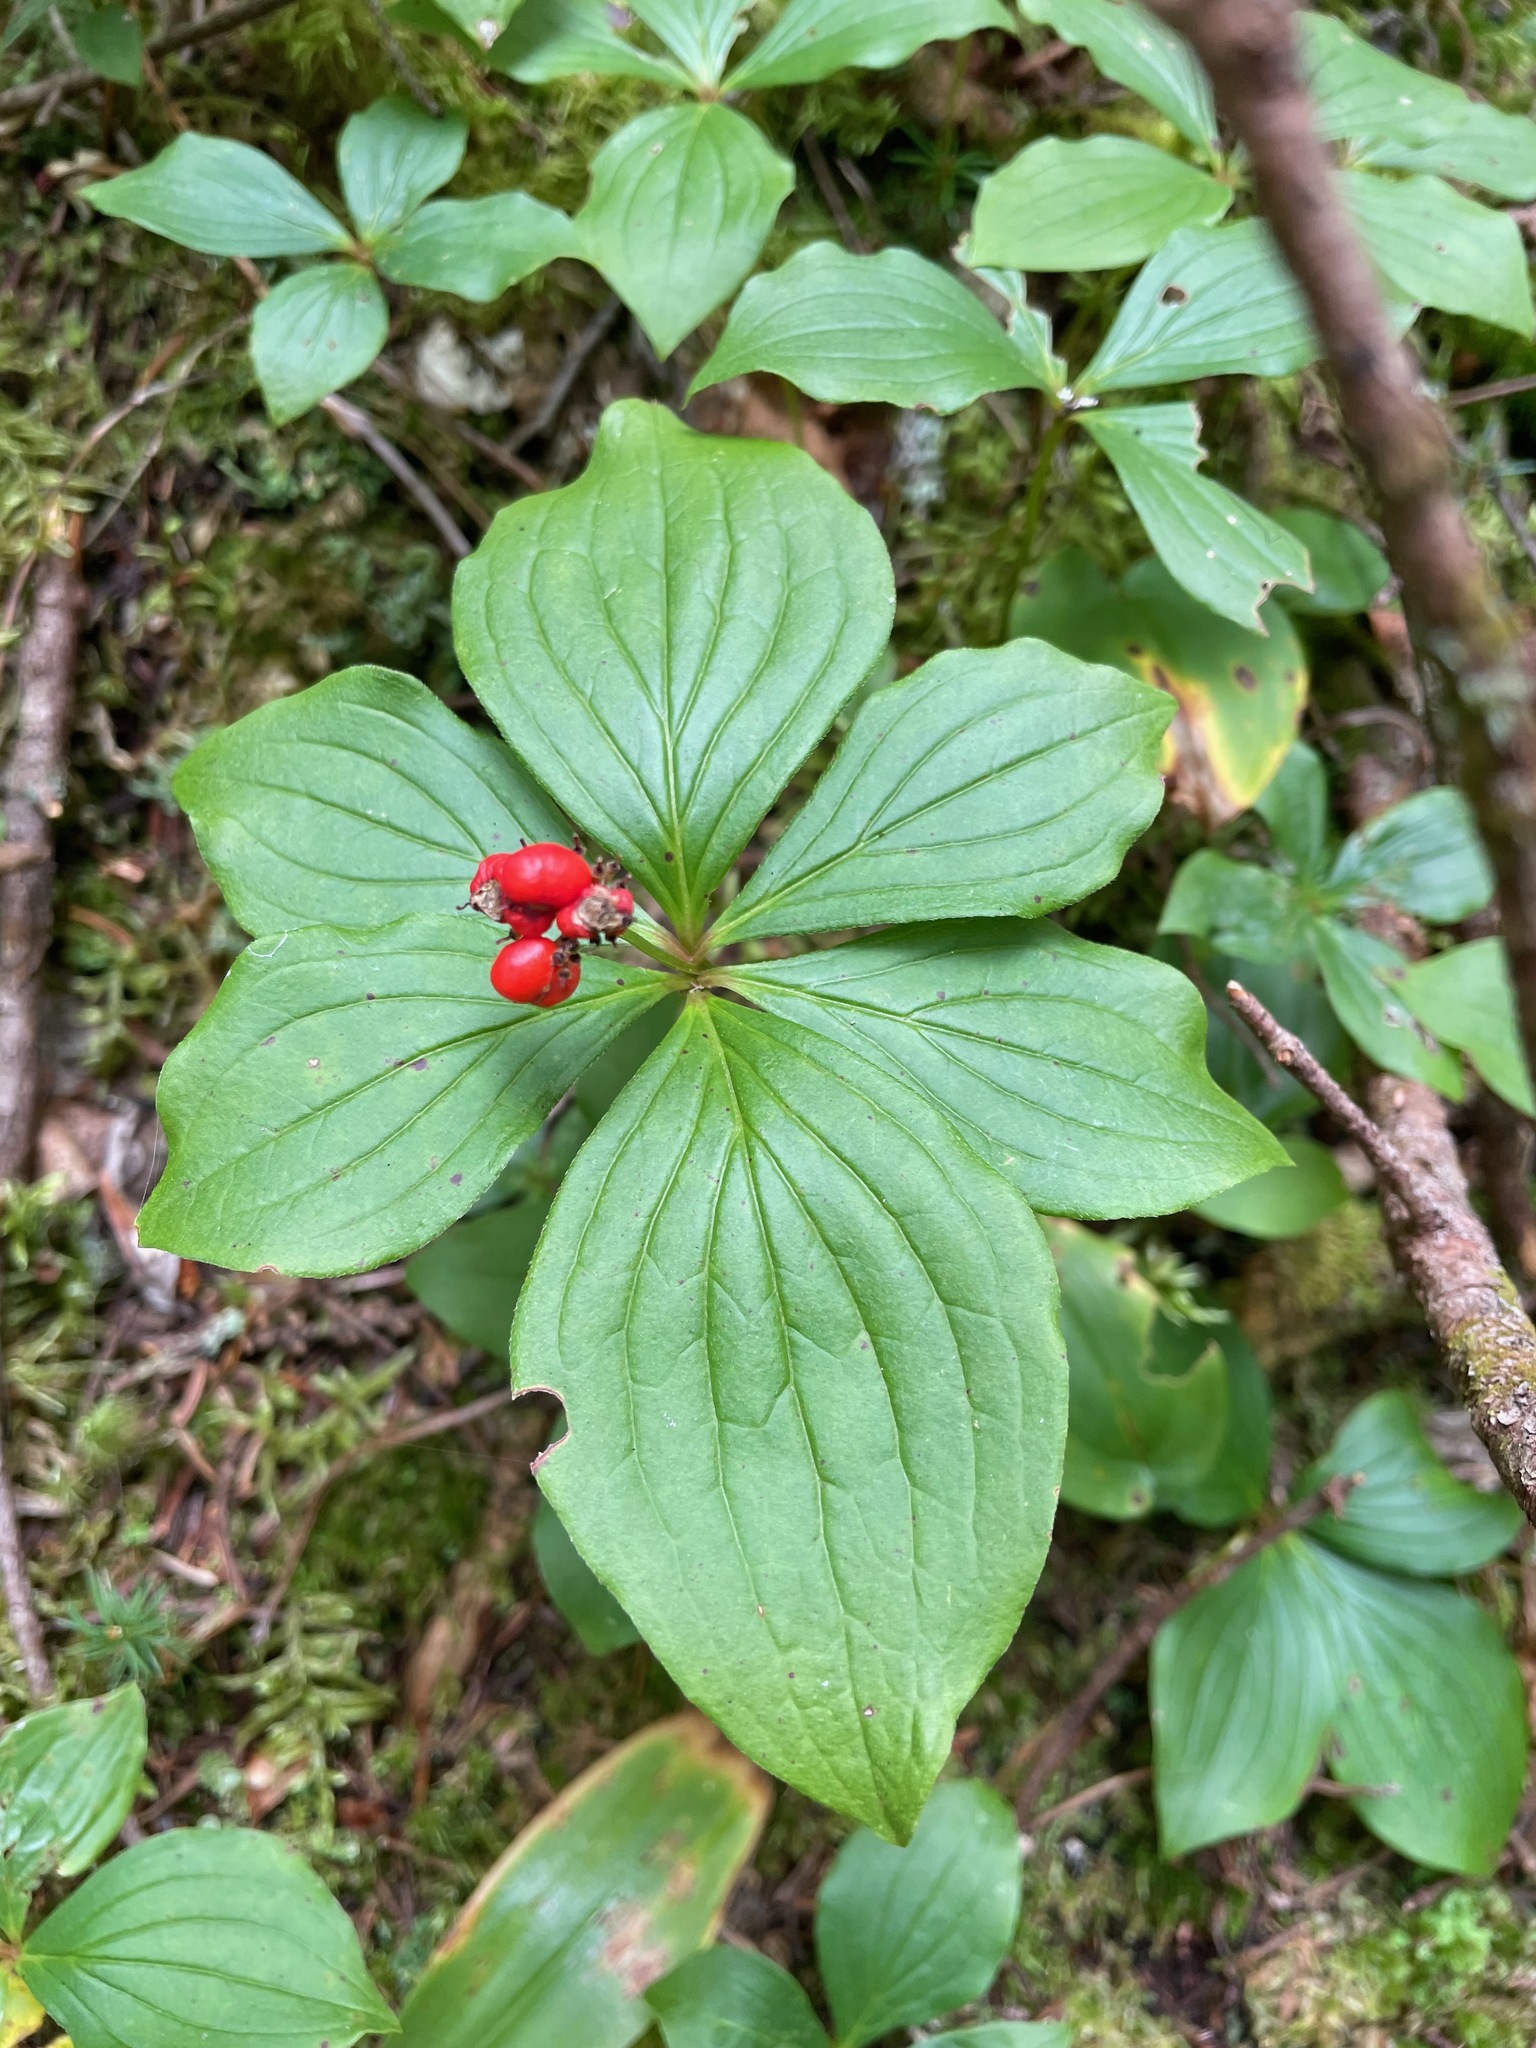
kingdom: Plantae
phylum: Tracheophyta
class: Magnoliopsida
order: Cornales
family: Cornaceae
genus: Cornus
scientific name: Cornus canadensis
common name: Creeping dogwood
